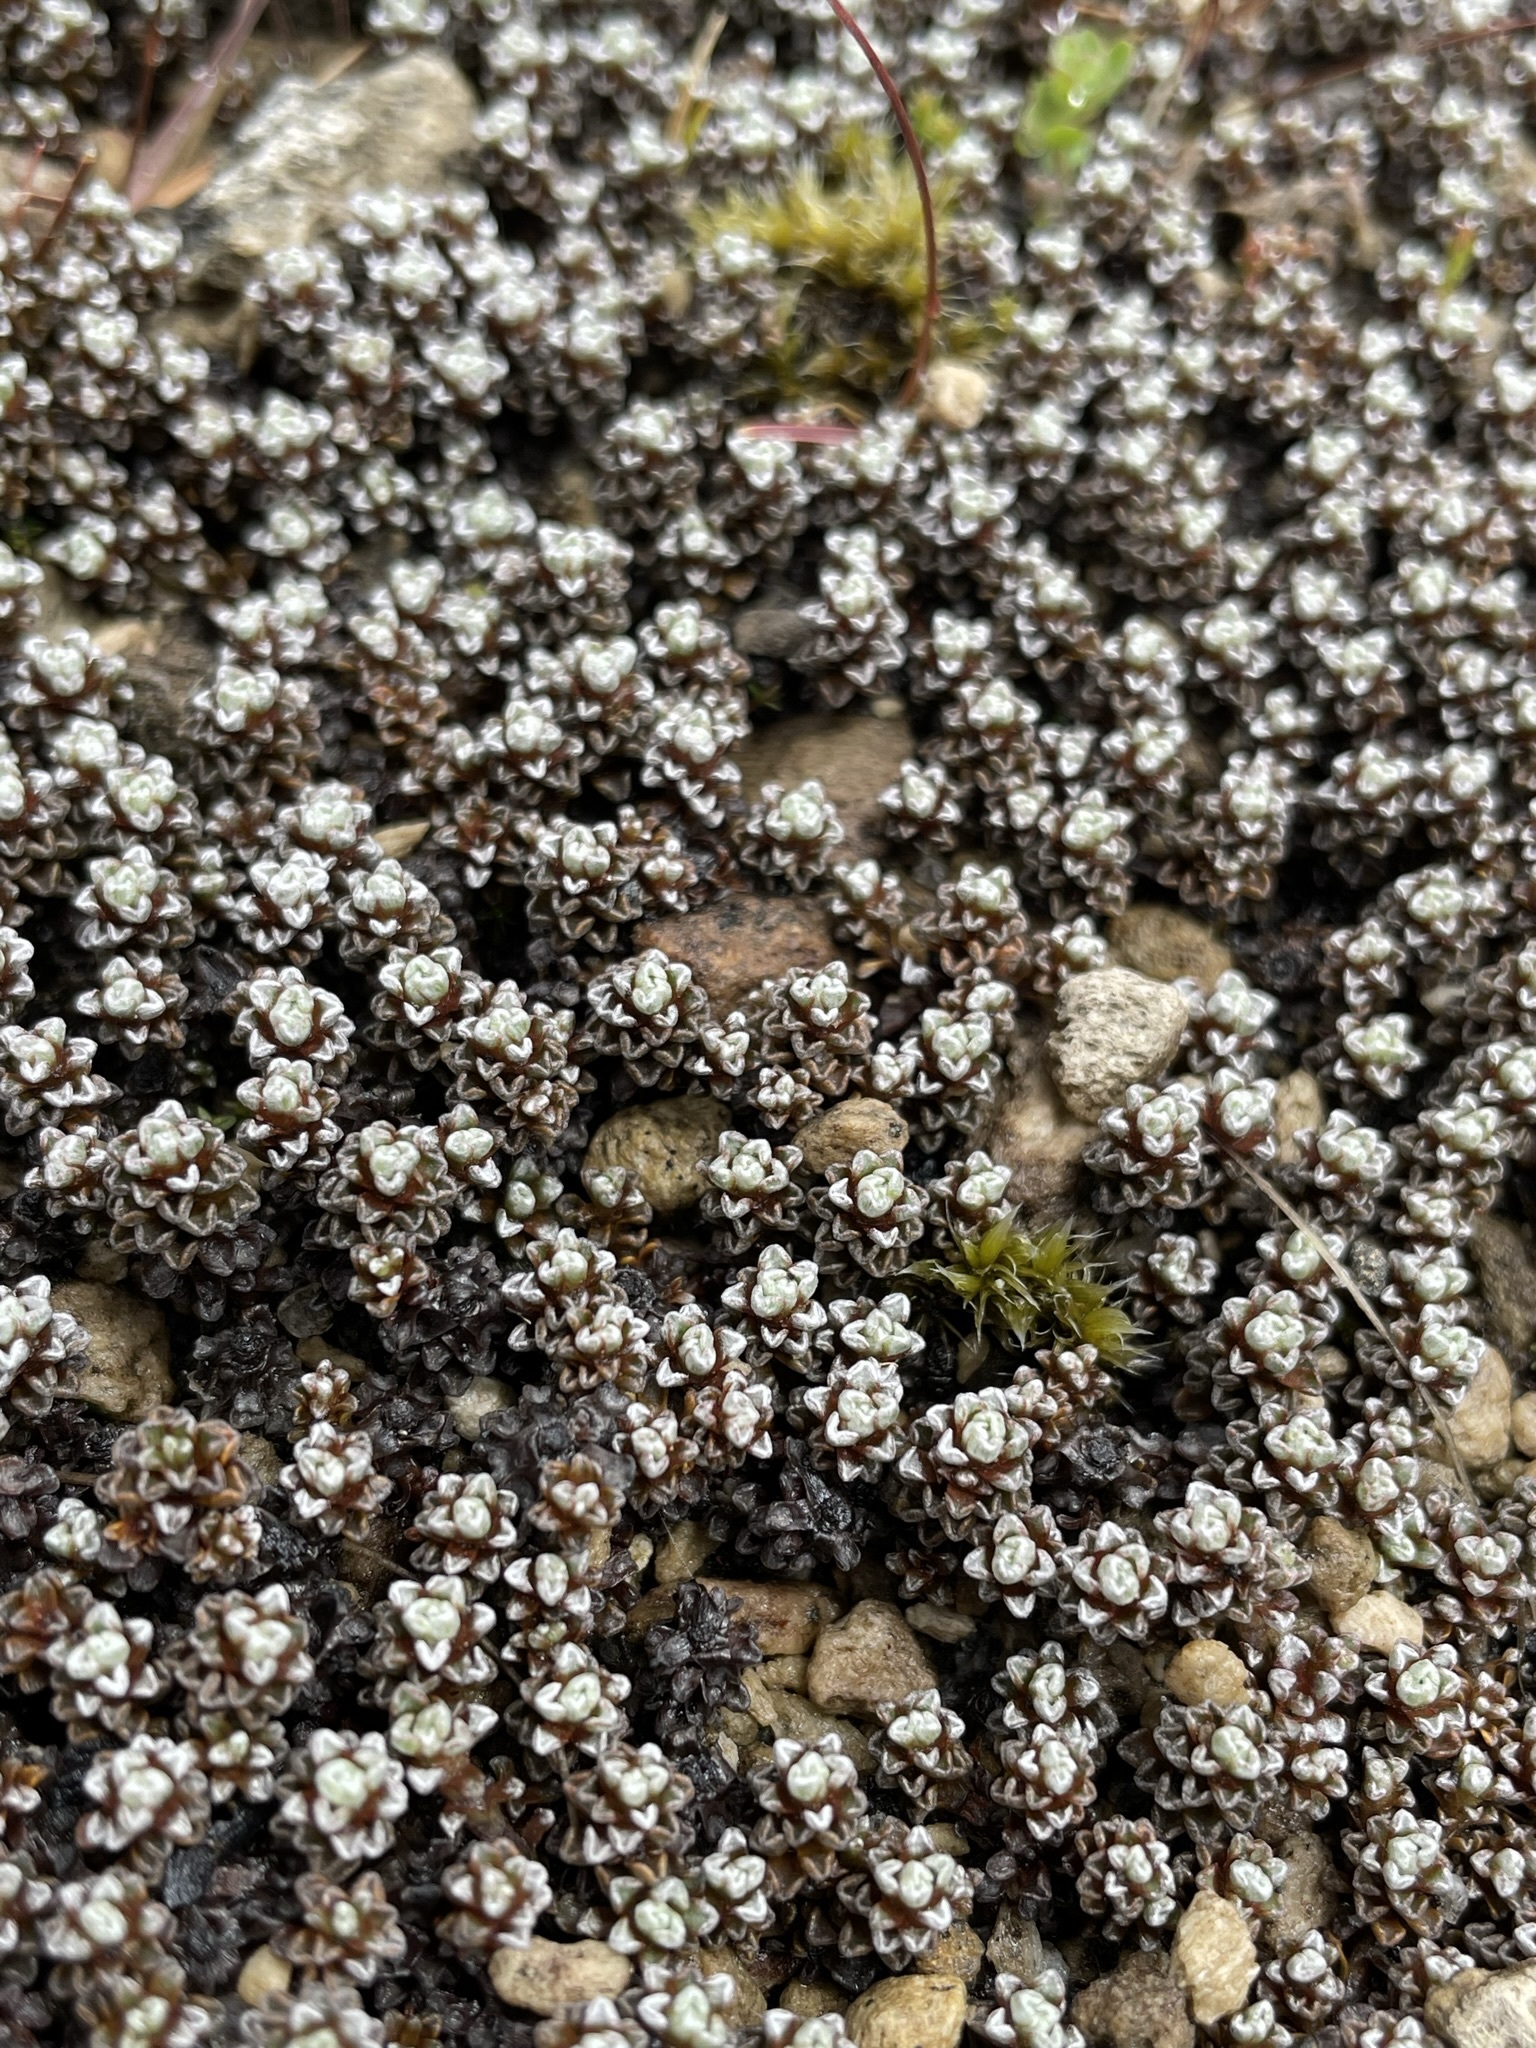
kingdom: Plantae
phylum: Tracheophyta
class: Magnoliopsida
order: Asterales
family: Asteraceae
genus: Raoulia
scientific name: Raoulia albosericea
